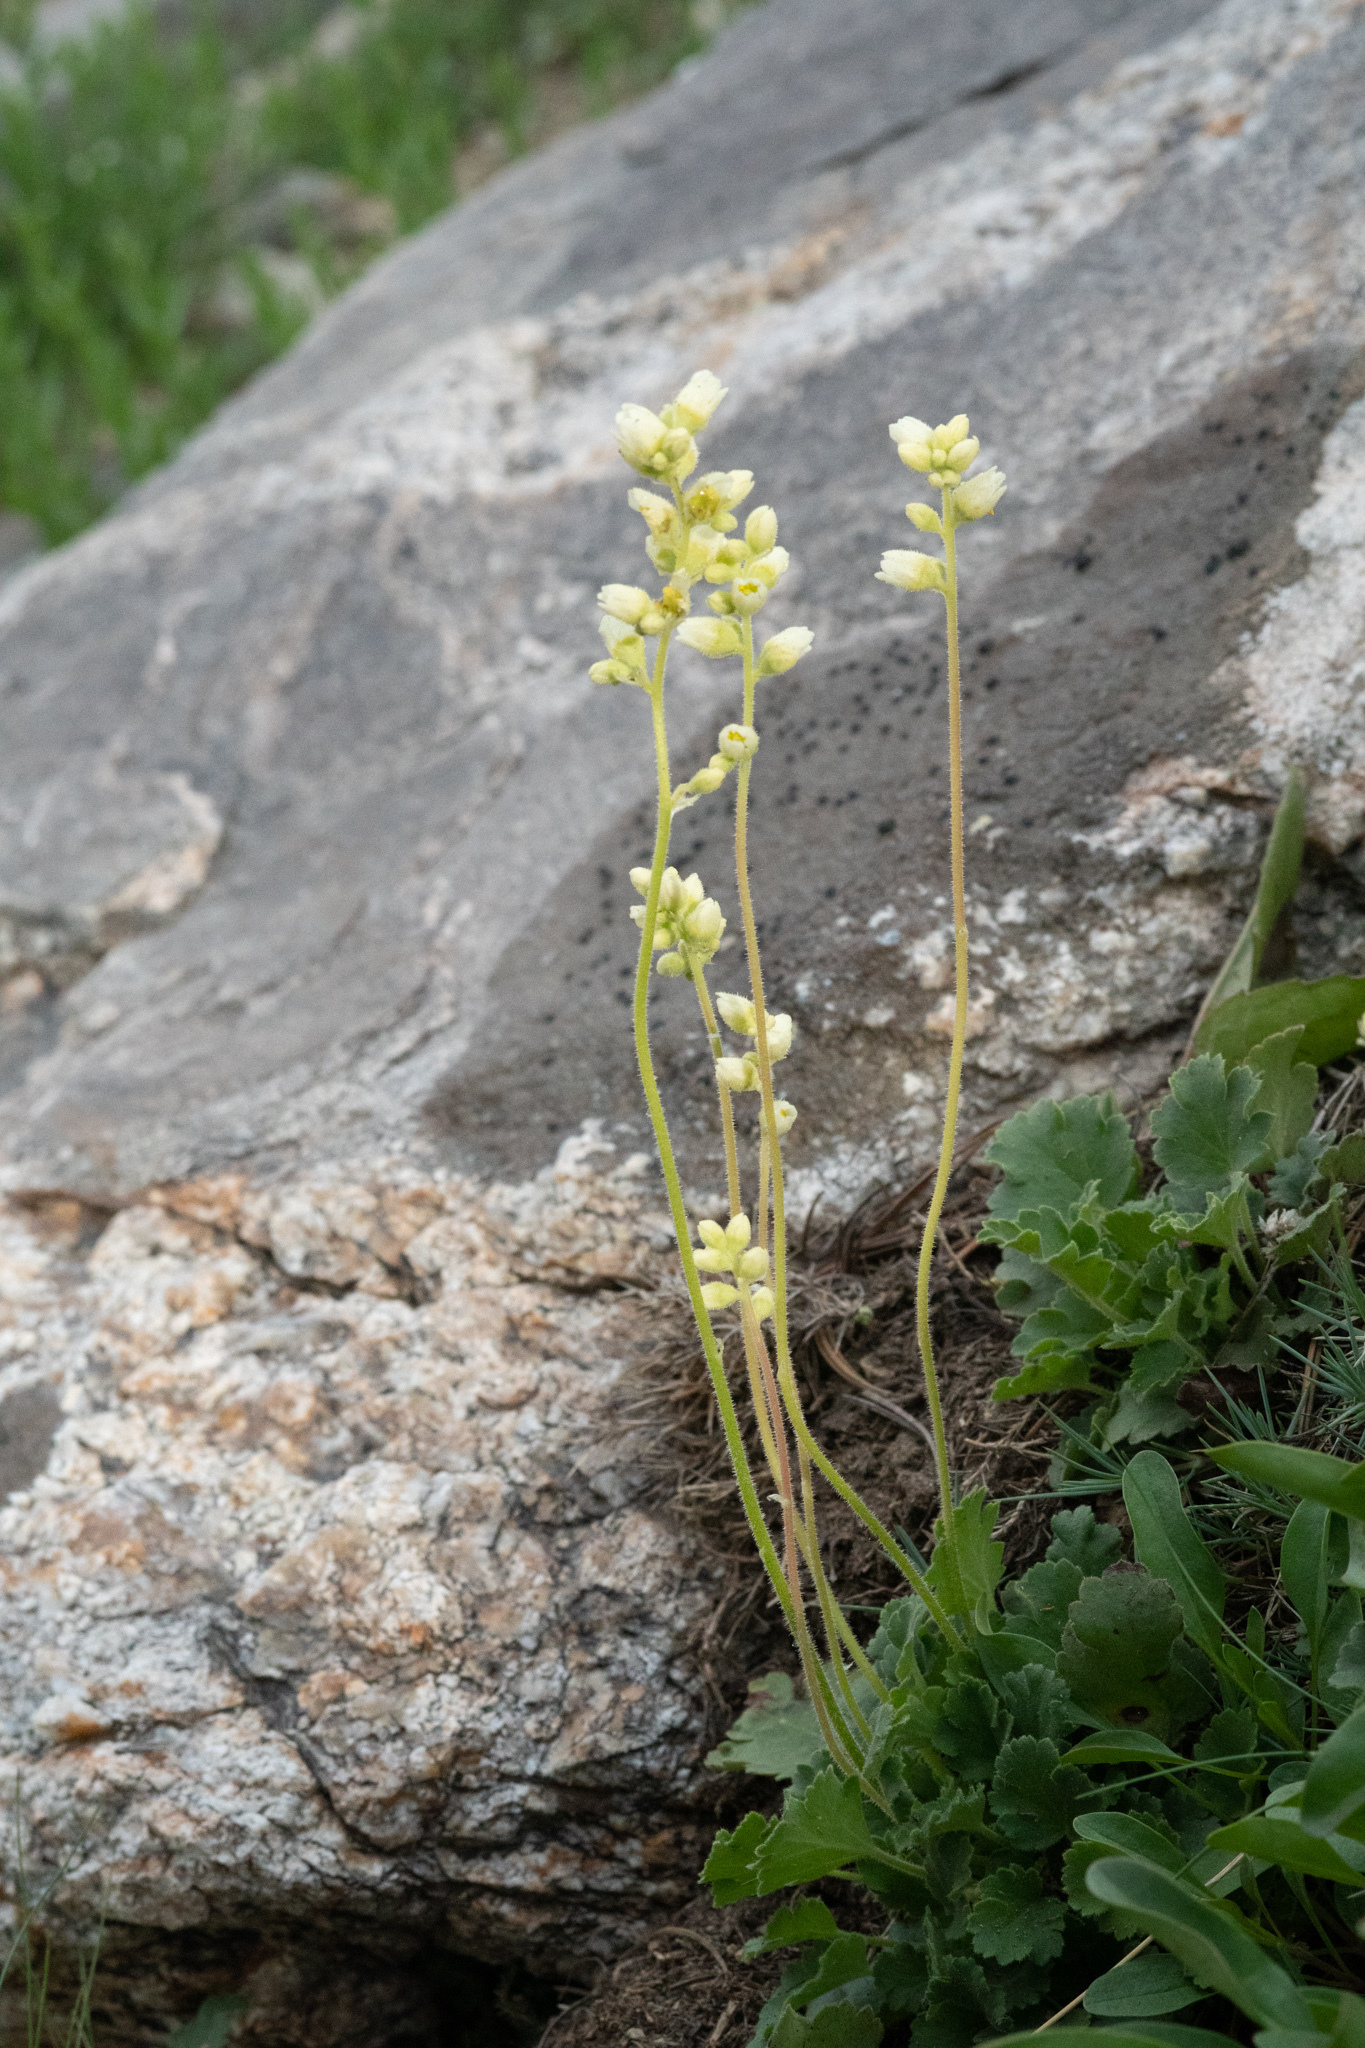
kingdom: Plantae
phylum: Tracheophyta
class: Magnoliopsida
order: Saxifragales
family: Saxifragaceae
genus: Heuchera
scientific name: Heuchera cylindrica
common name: Mat alumroot
